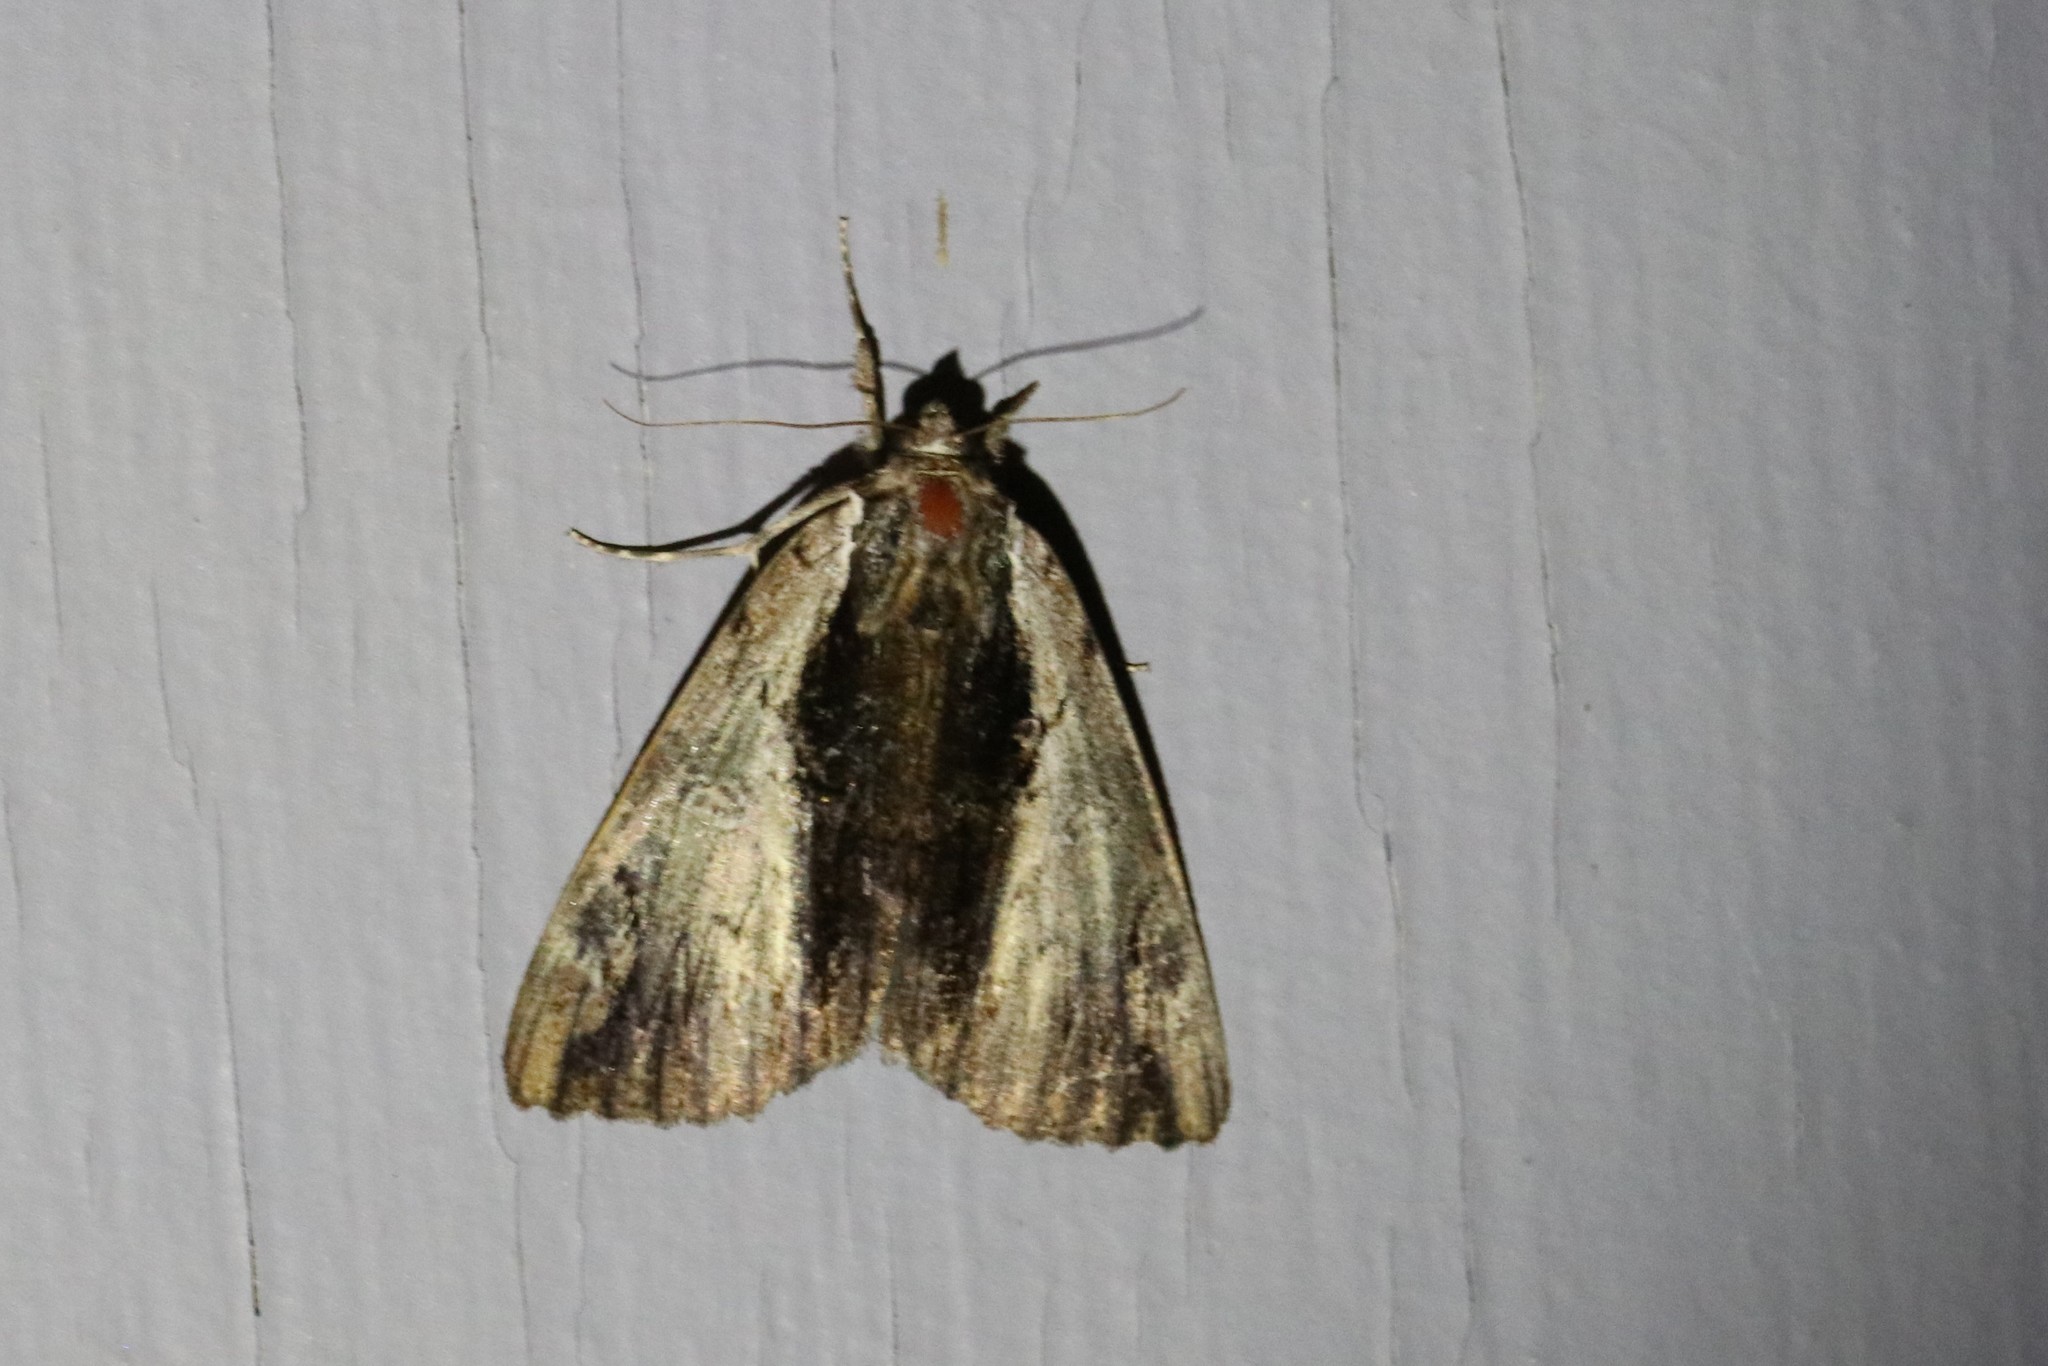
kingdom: Animalia
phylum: Arthropoda
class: Insecta
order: Lepidoptera
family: Erebidae
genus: Catocala
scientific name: Catocala ultronia
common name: Ultronia underwing
